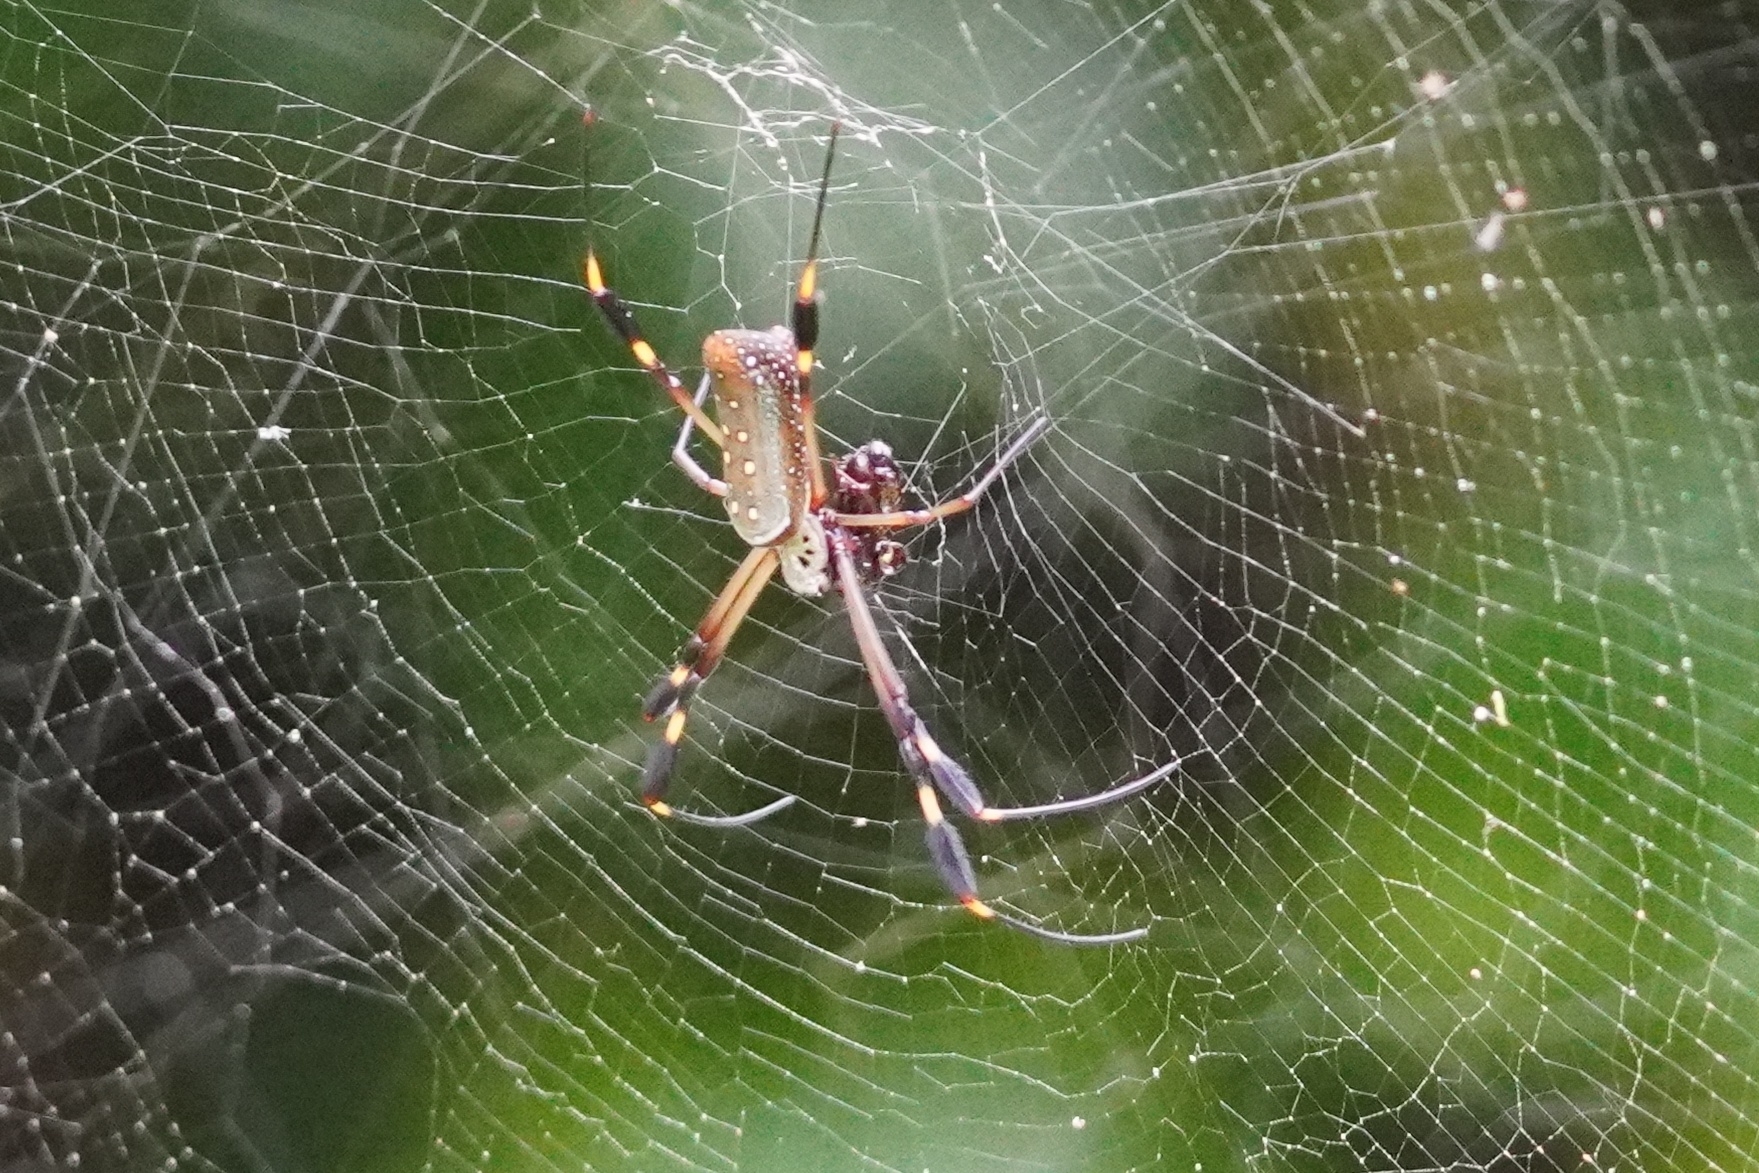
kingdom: Animalia
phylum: Arthropoda
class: Arachnida
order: Araneae
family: Araneidae
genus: Trichonephila
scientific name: Trichonephila clavipes
